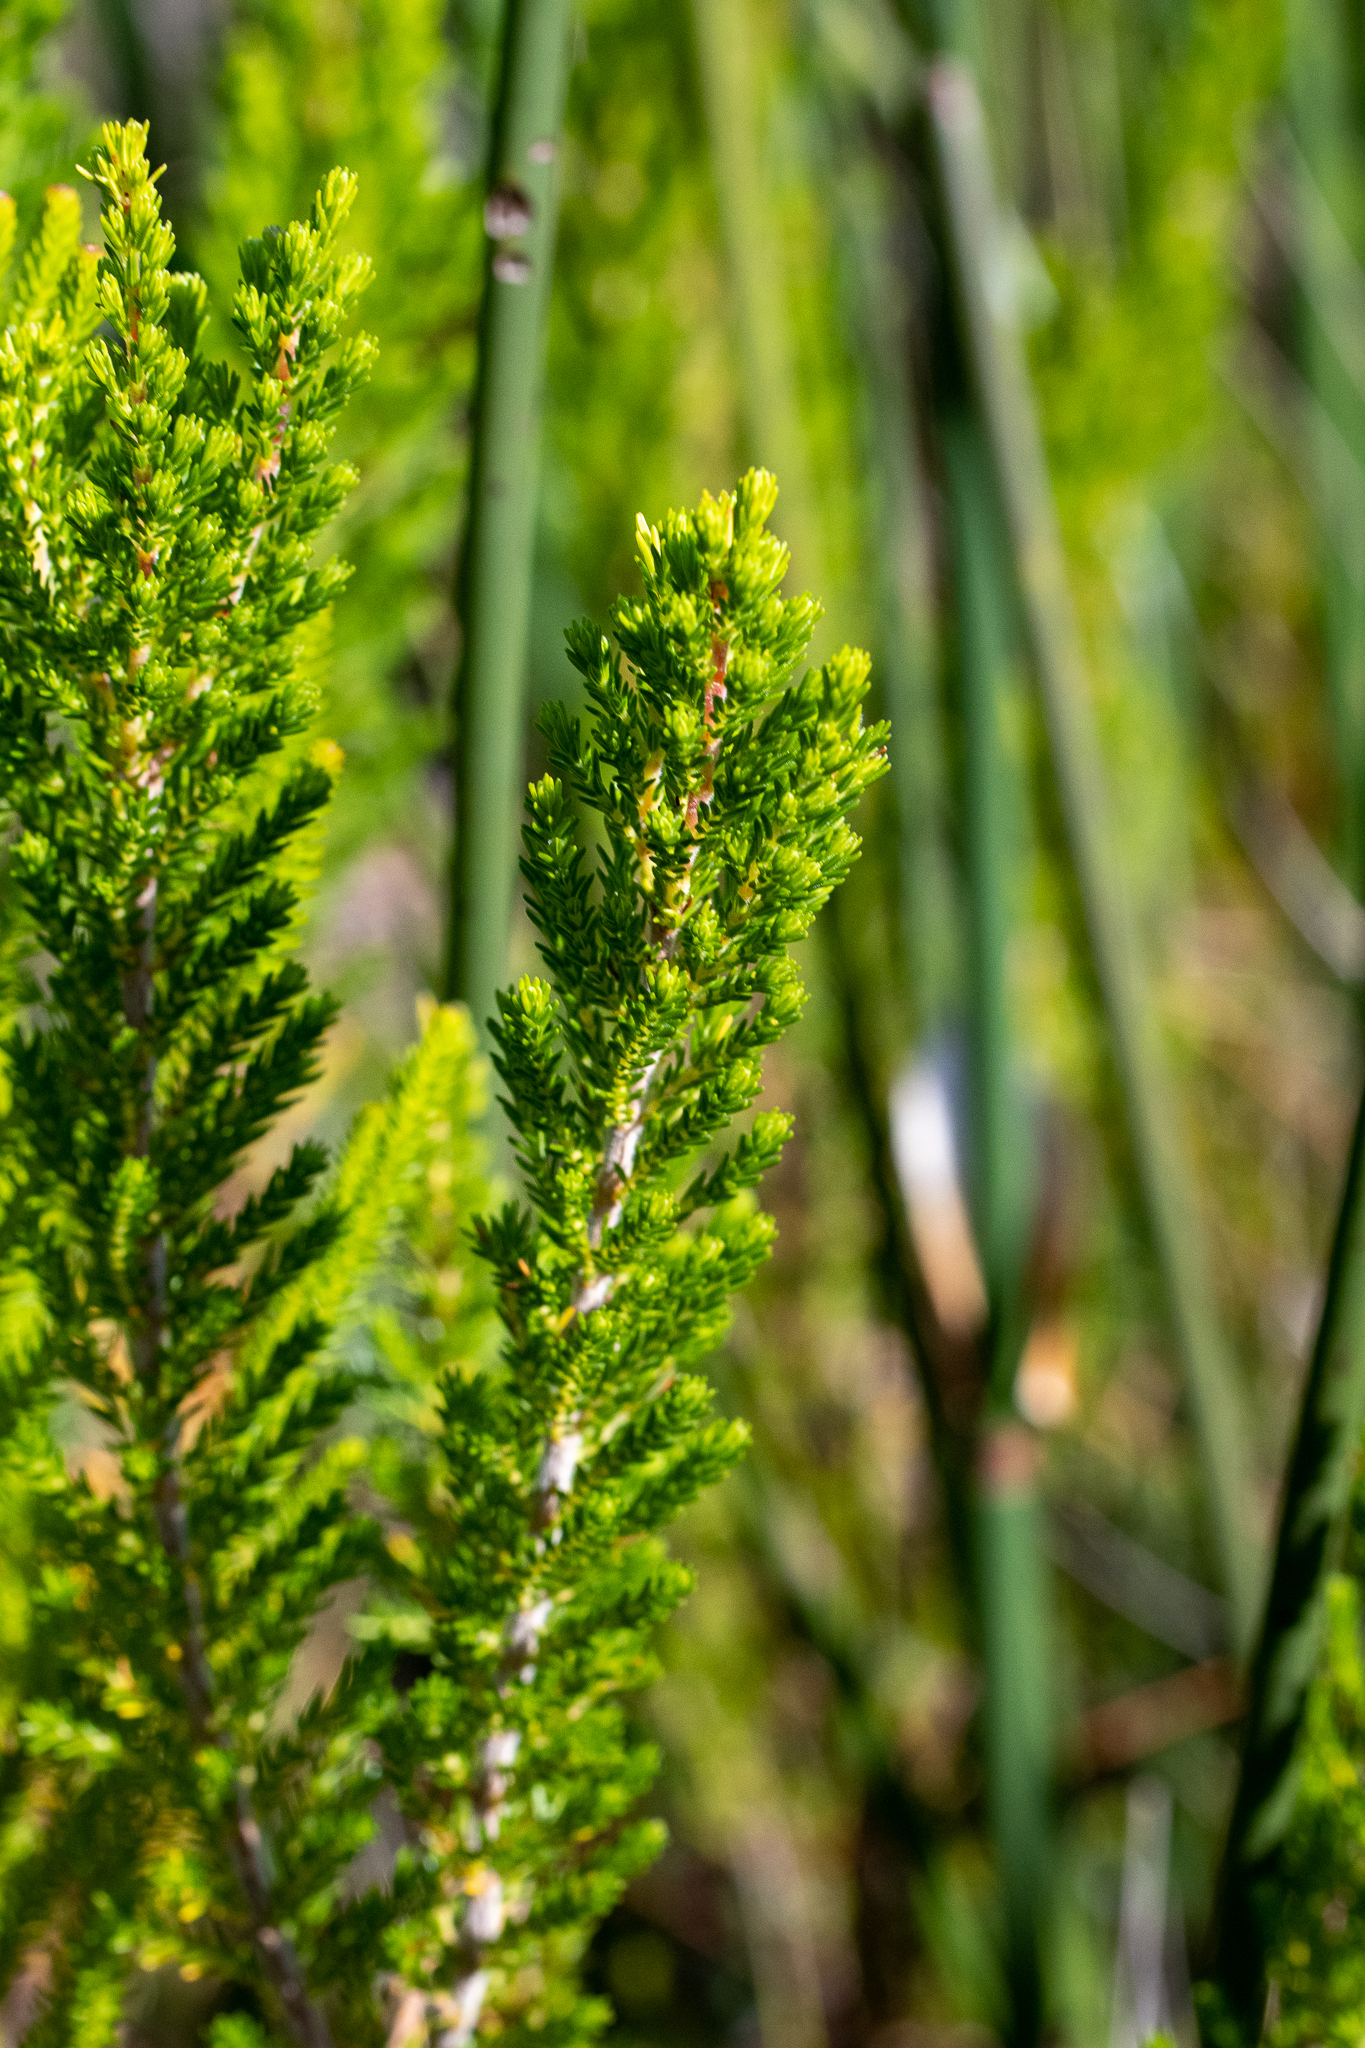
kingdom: Plantae
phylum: Tracheophyta
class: Magnoliopsida
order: Ericales
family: Ericaceae
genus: Erica
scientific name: Erica perspicua
